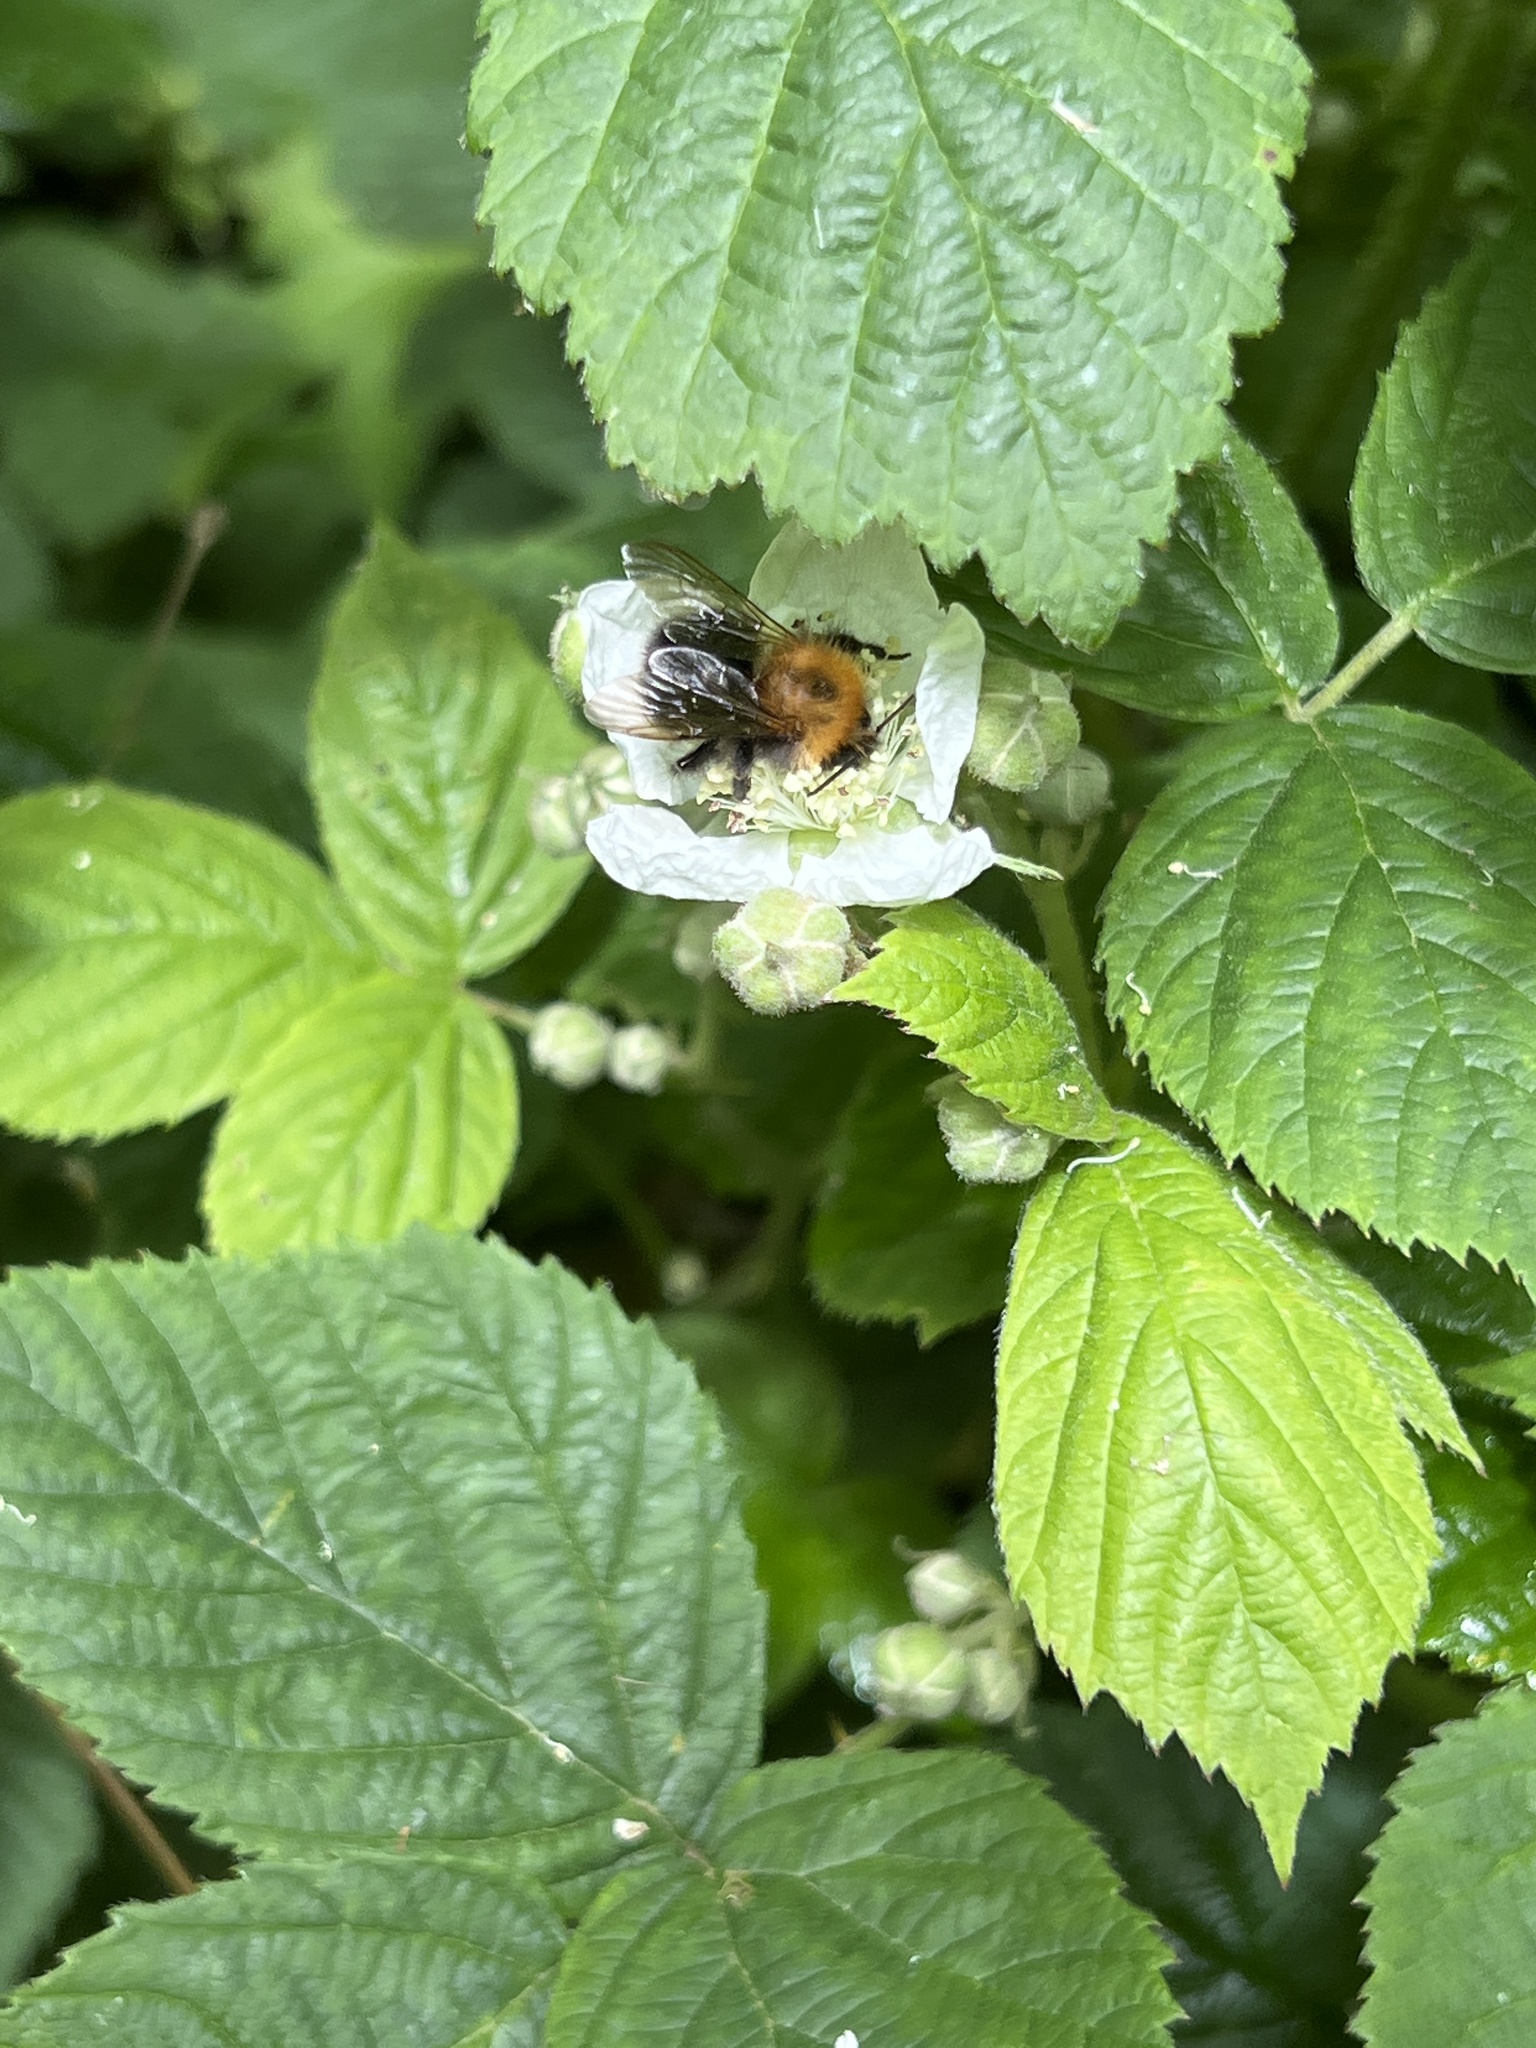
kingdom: Animalia
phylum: Arthropoda
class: Insecta
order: Hymenoptera
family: Apidae
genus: Bombus
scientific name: Bombus hypnorum
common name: New garden bumblebee
